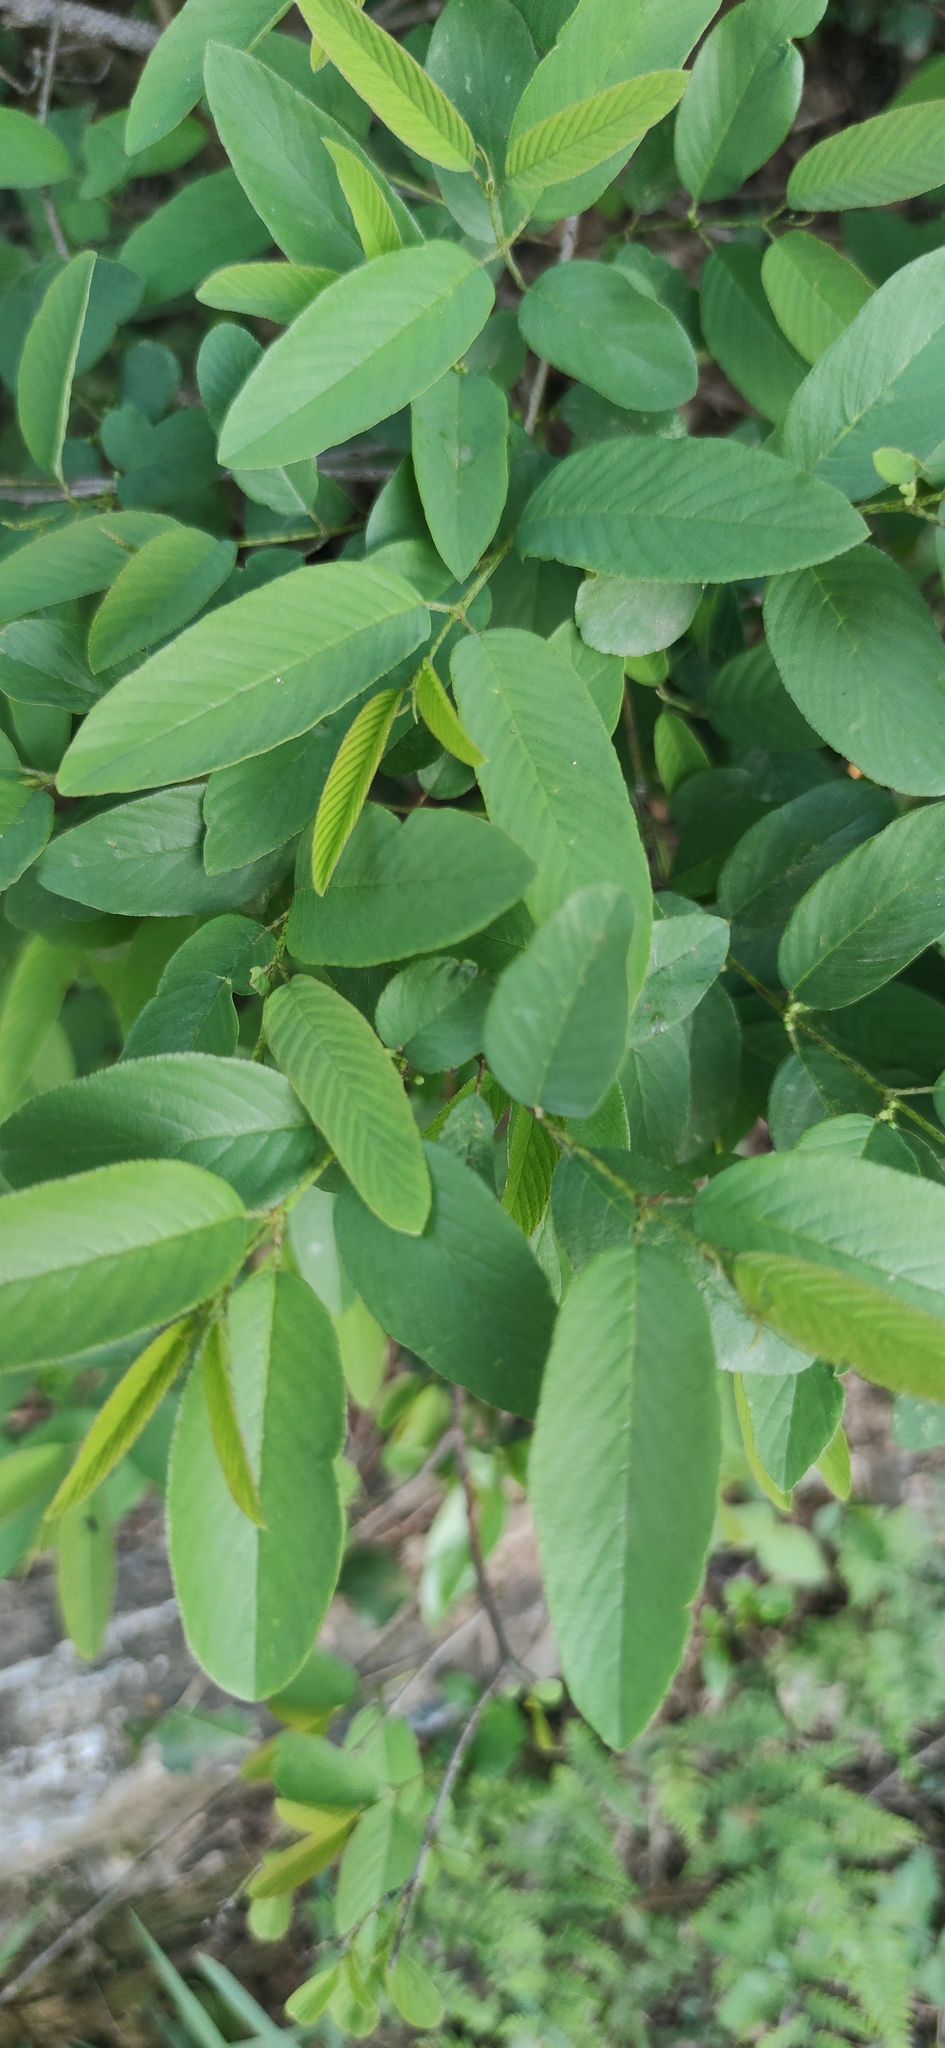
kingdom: Plantae
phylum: Tracheophyta
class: Magnoliopsida
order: Rosales
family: Rhamnaceae
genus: Karwinskia
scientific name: Karwinskia humboldtiana
